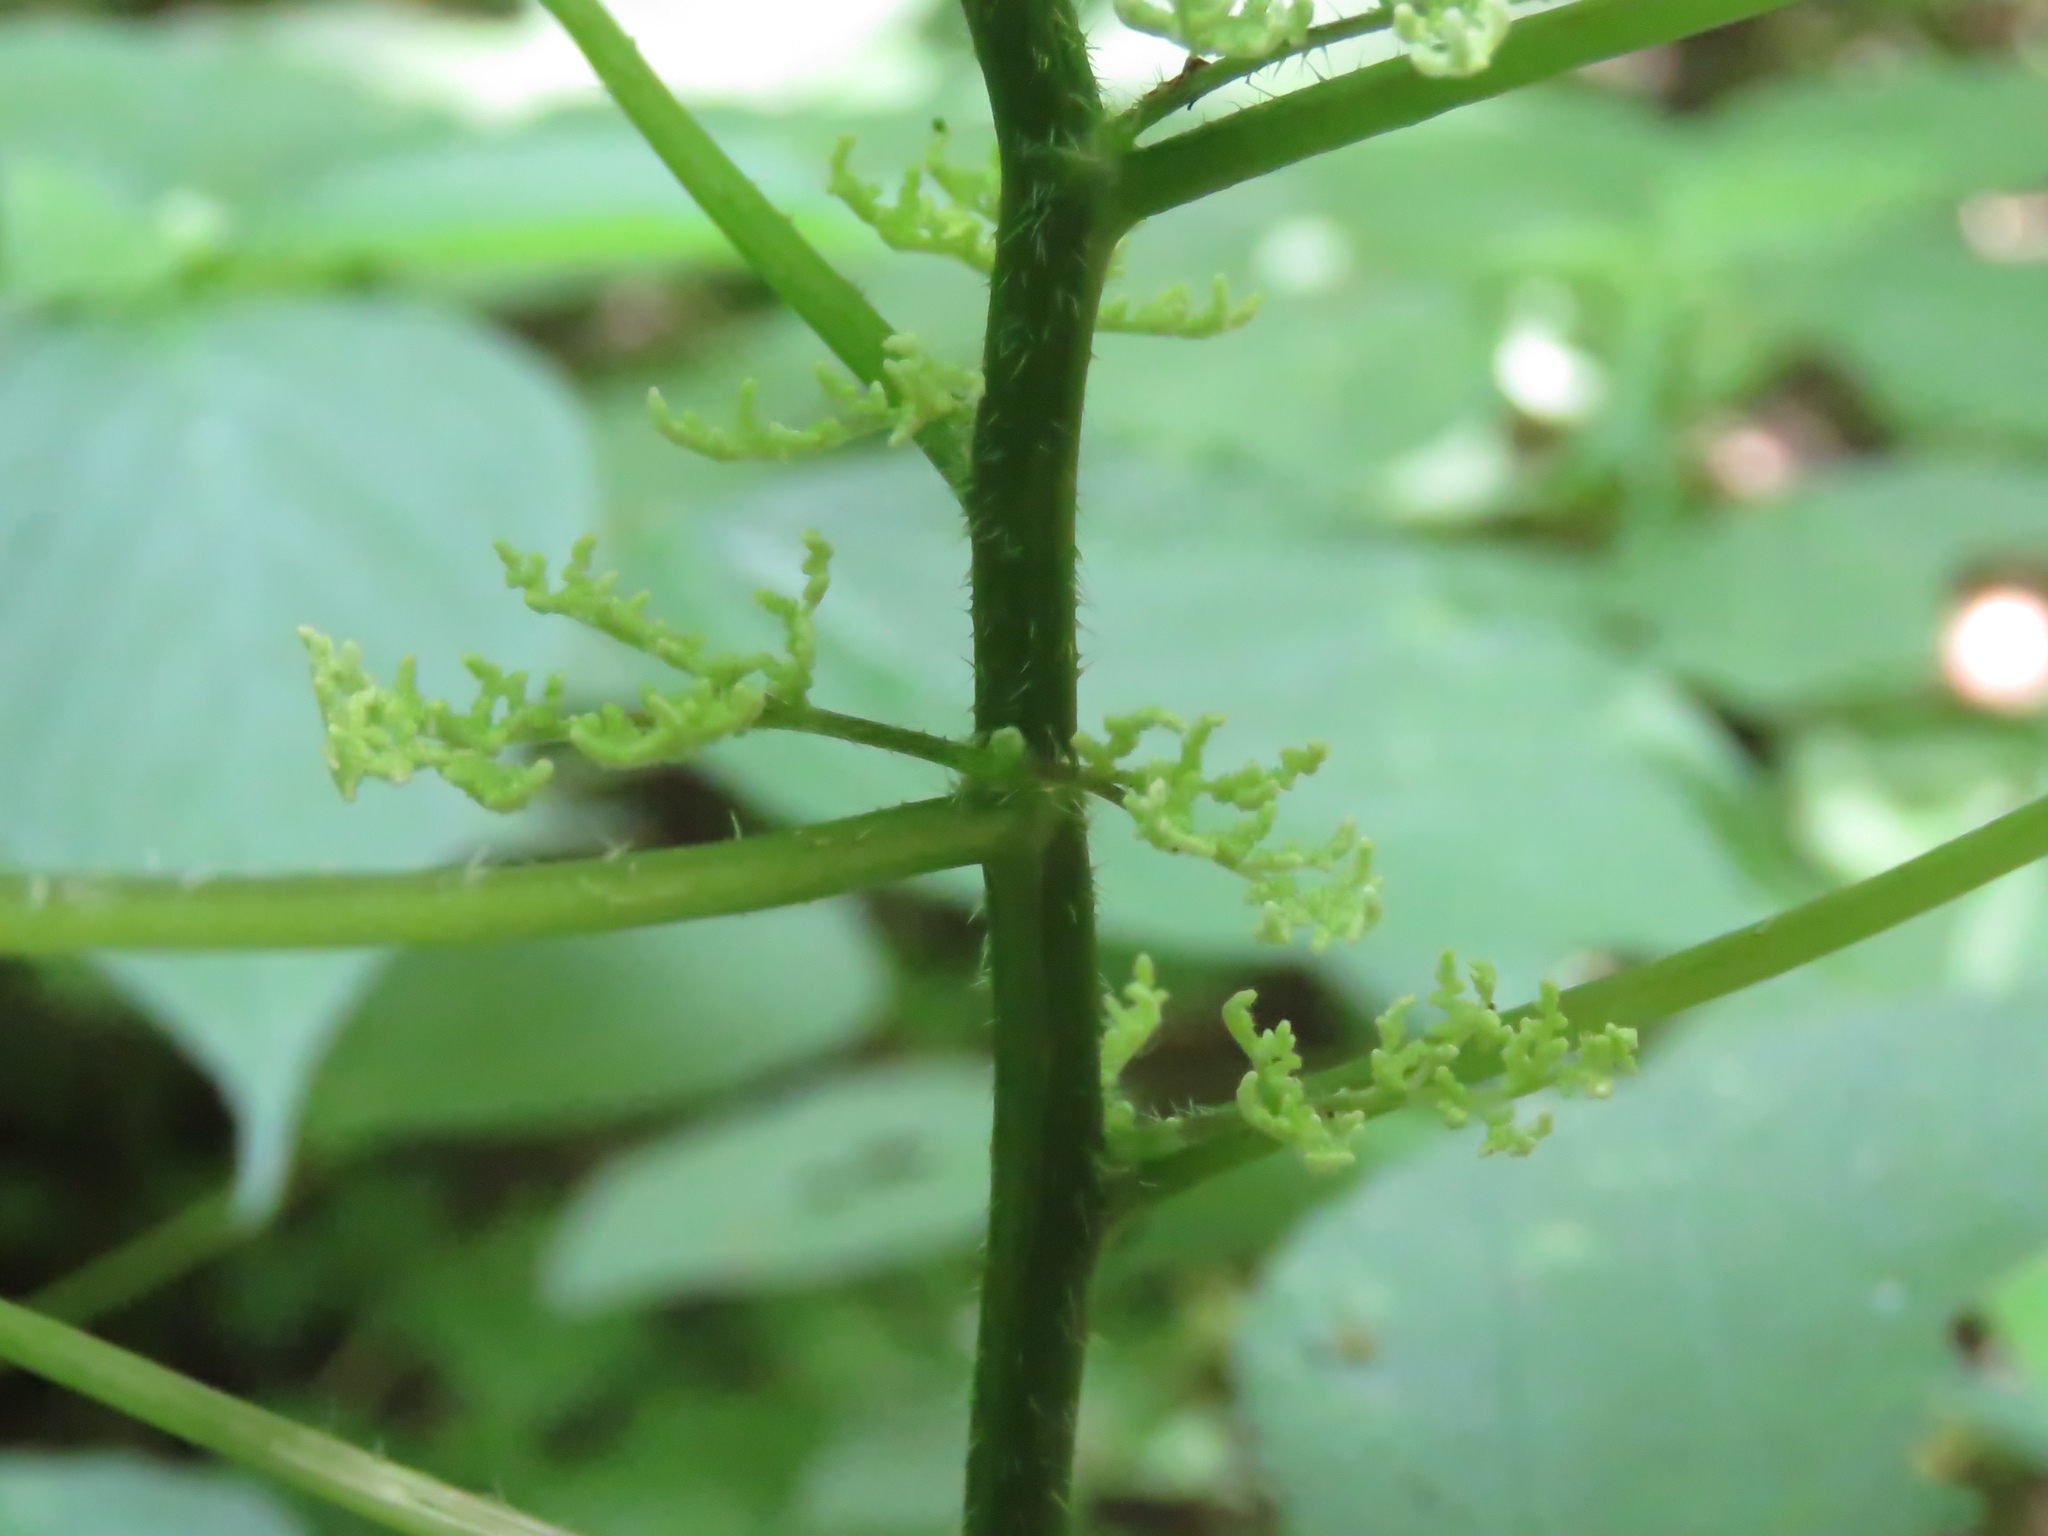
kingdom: Plantae
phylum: Tracheophyta
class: Magnoliopsida
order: Rosales
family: Urticaceae
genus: Laportea
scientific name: Laportea canadensis
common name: Canada nettle
